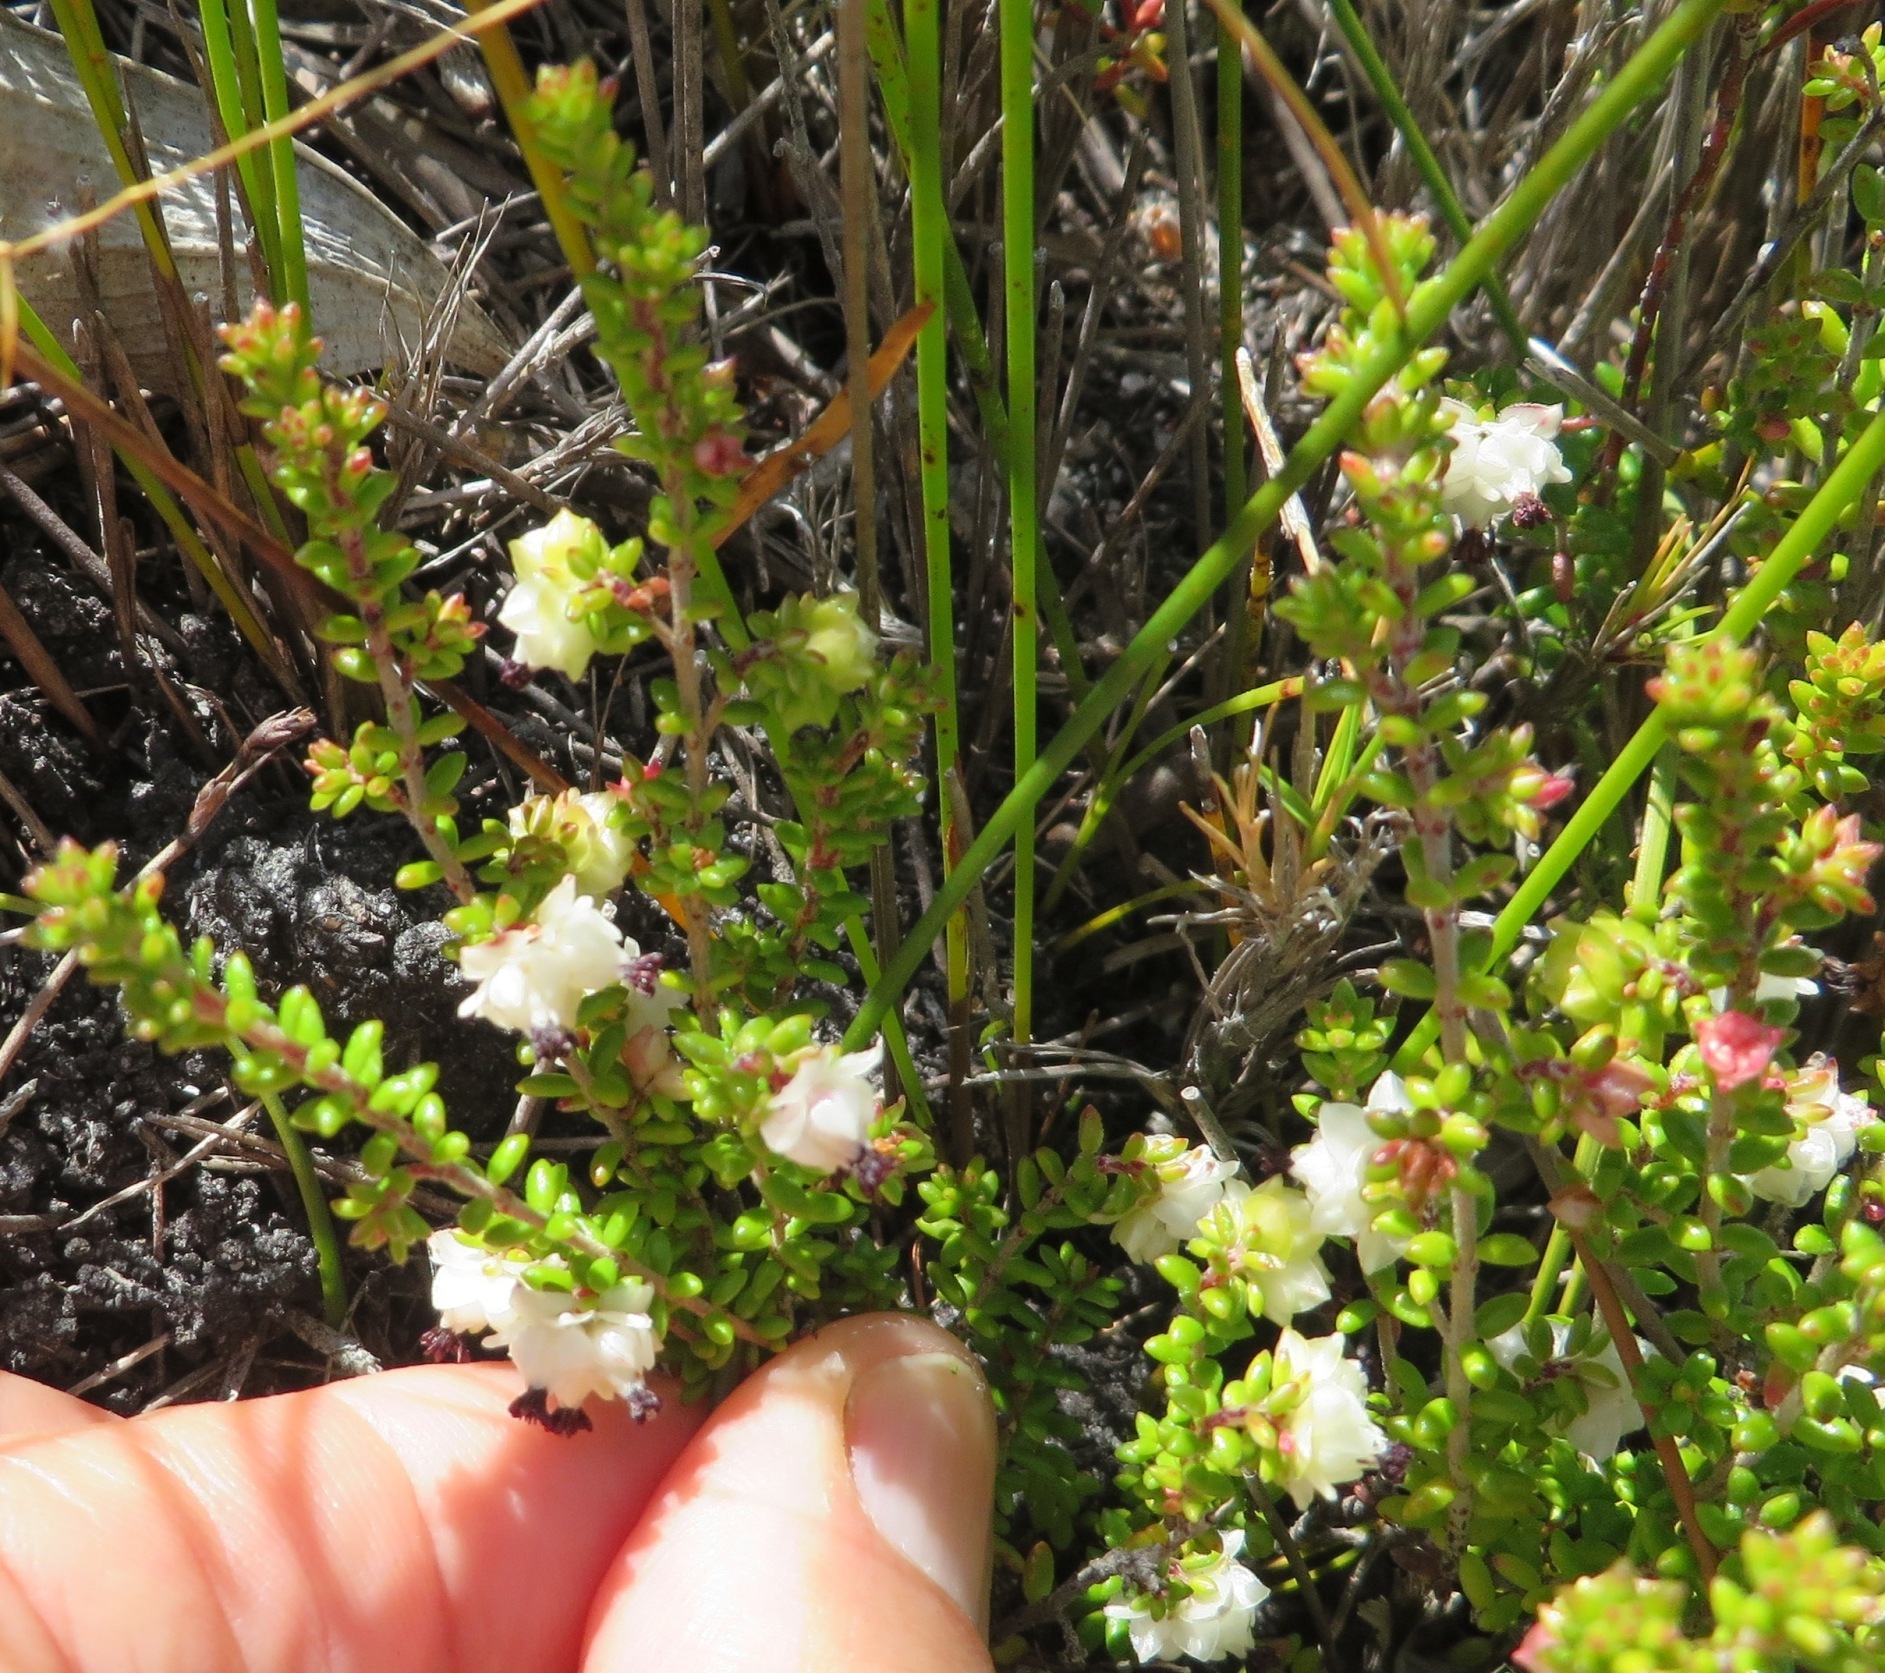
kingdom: Plantae
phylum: Tracheophyta
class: Magnoliopsida
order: Ericales
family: Ericaceae
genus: Erica
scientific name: Erica azaleifolia
